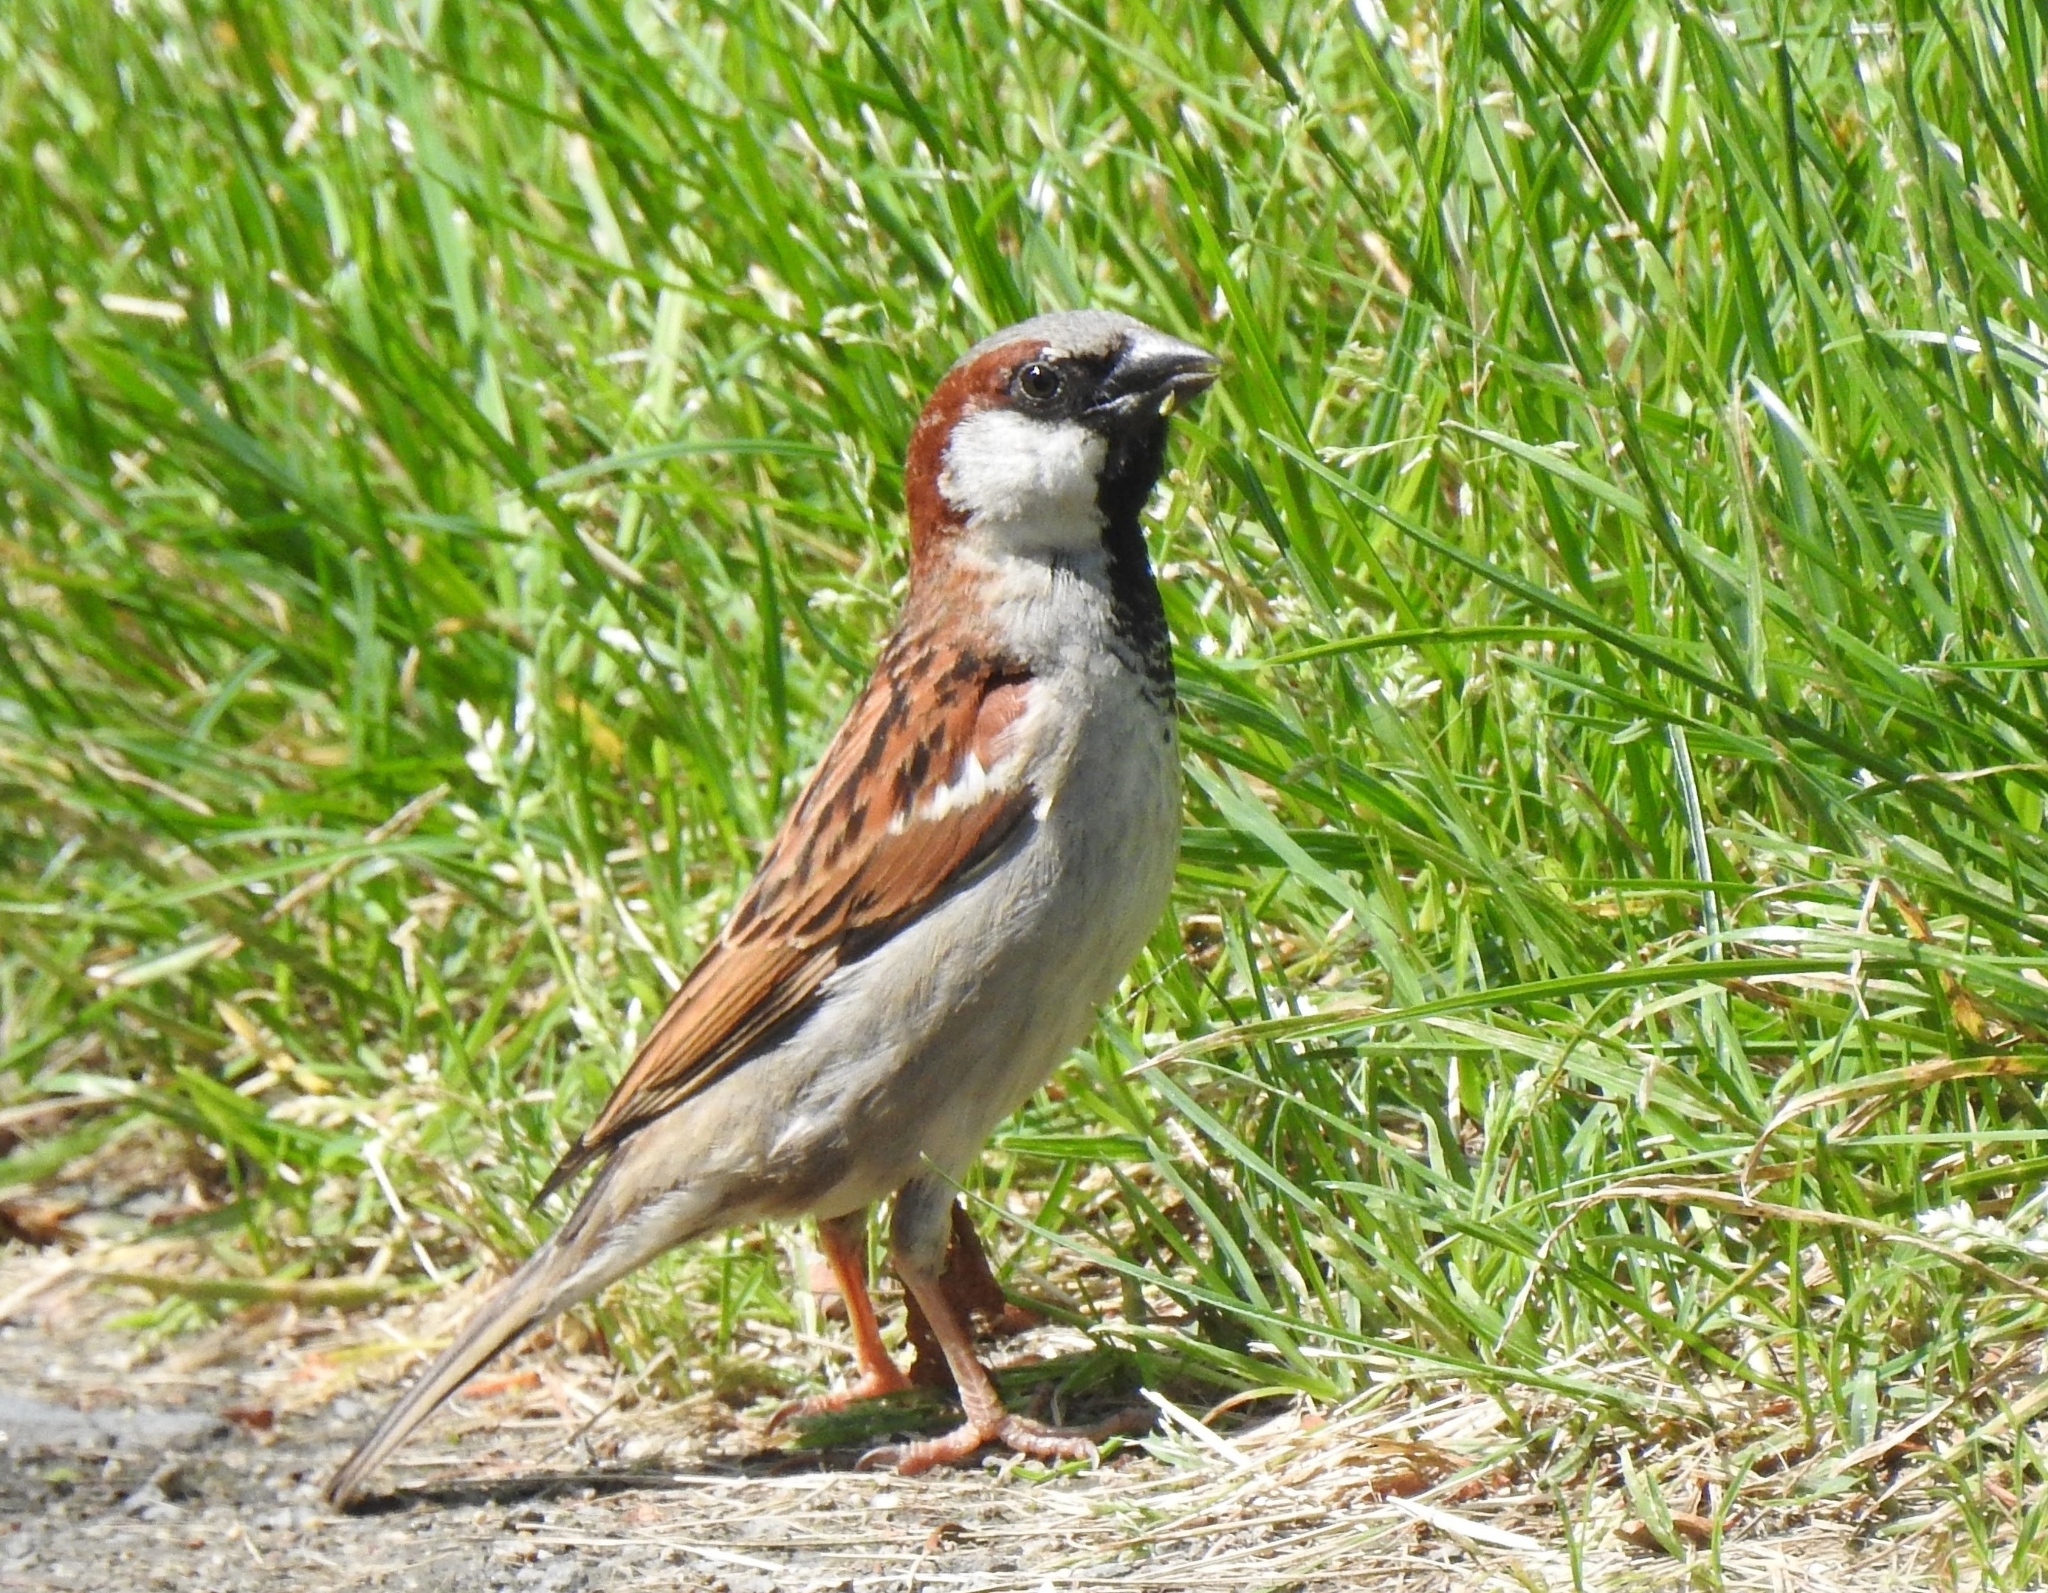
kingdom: Animalia
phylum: Chordata
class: Aves
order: Passeriformes
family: Passeridae
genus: Passer
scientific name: Passer domesticus
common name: House sparrow
